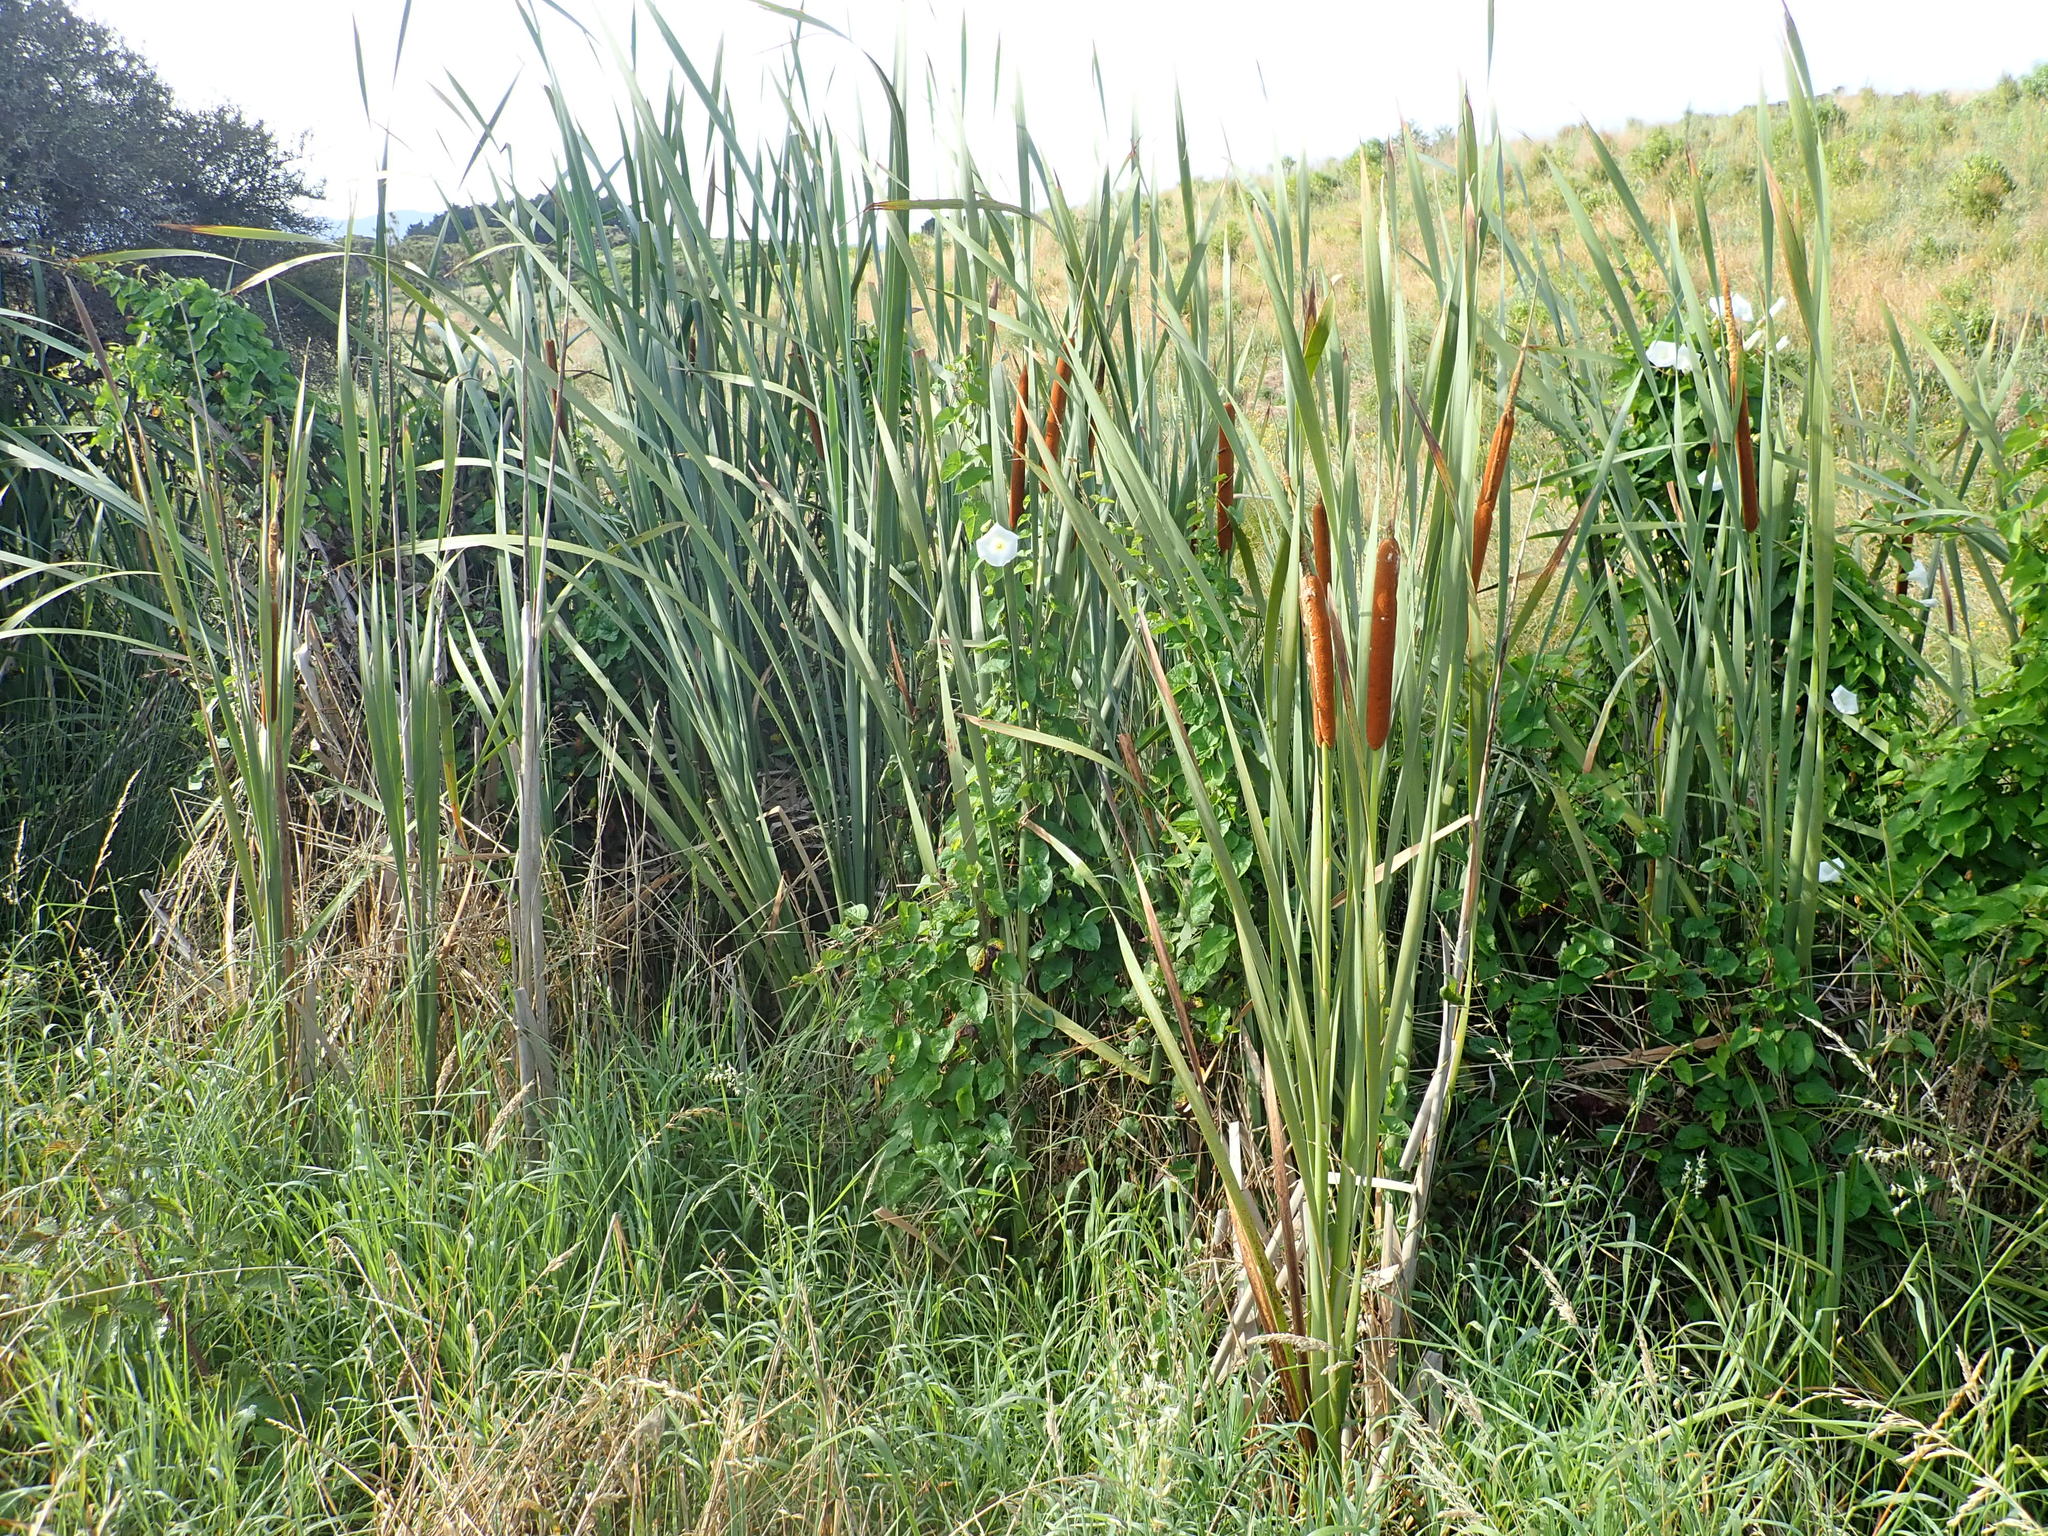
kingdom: Plantae
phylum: Tracheophyta
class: Liliopsida
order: Poales
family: Typhaceae
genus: Typha
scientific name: Typha orientalis
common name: Bullrush
